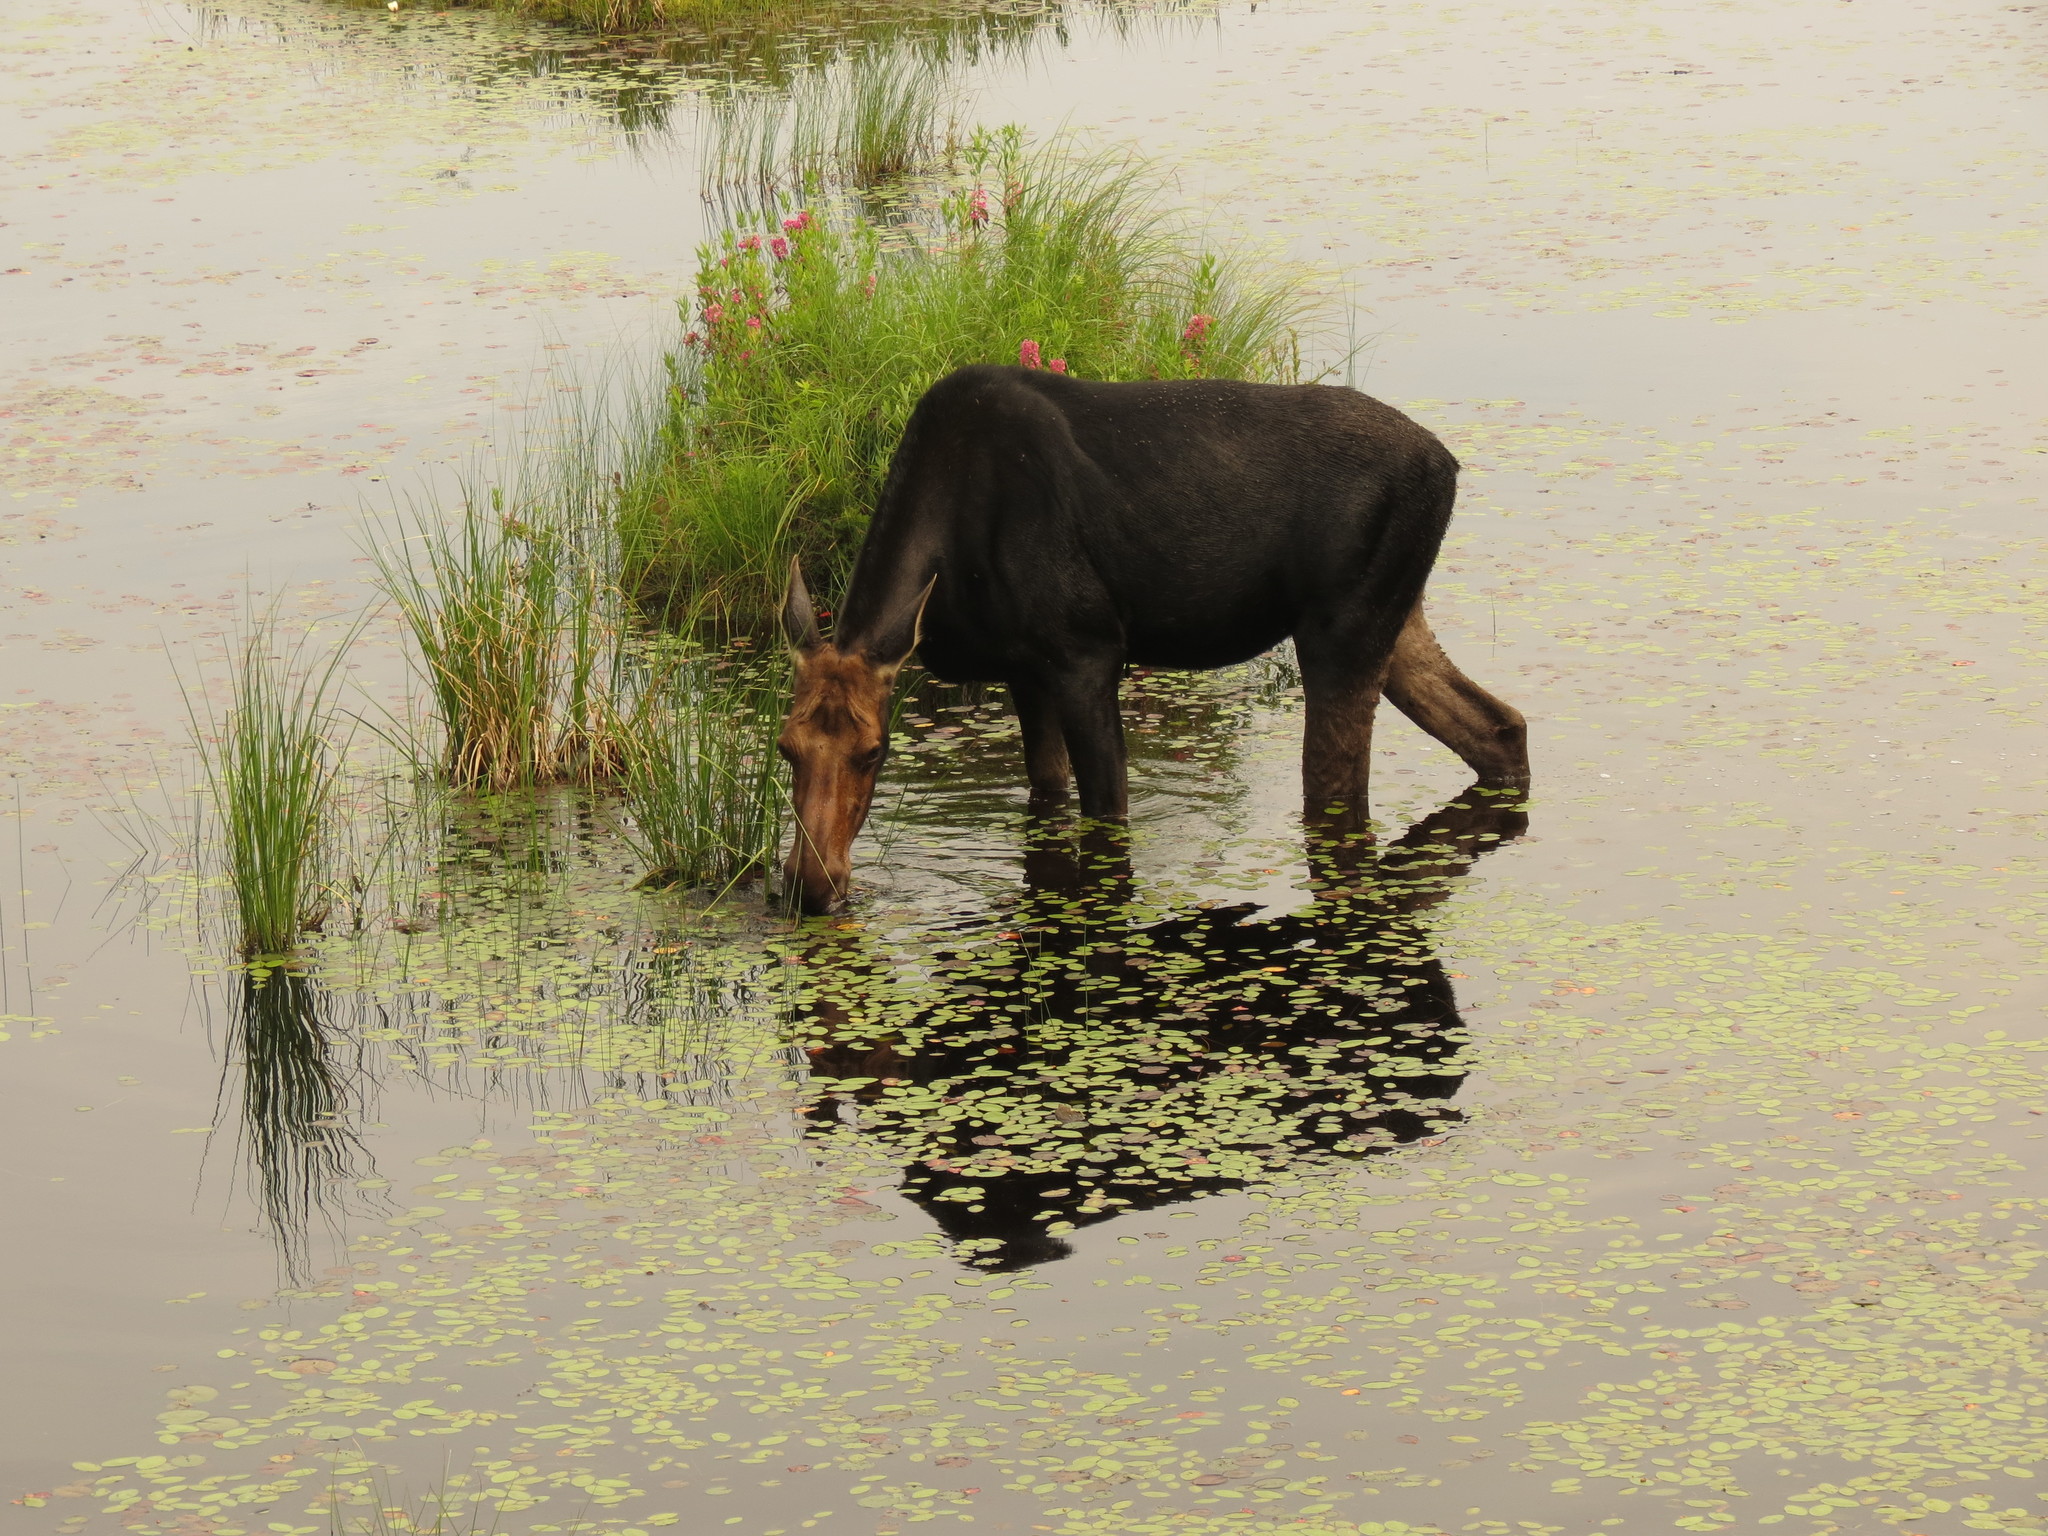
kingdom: Animalia
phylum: Chordata
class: Mammalia
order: Artiodactyla
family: Cervidae
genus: Alces
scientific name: Alces alces
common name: Moose
